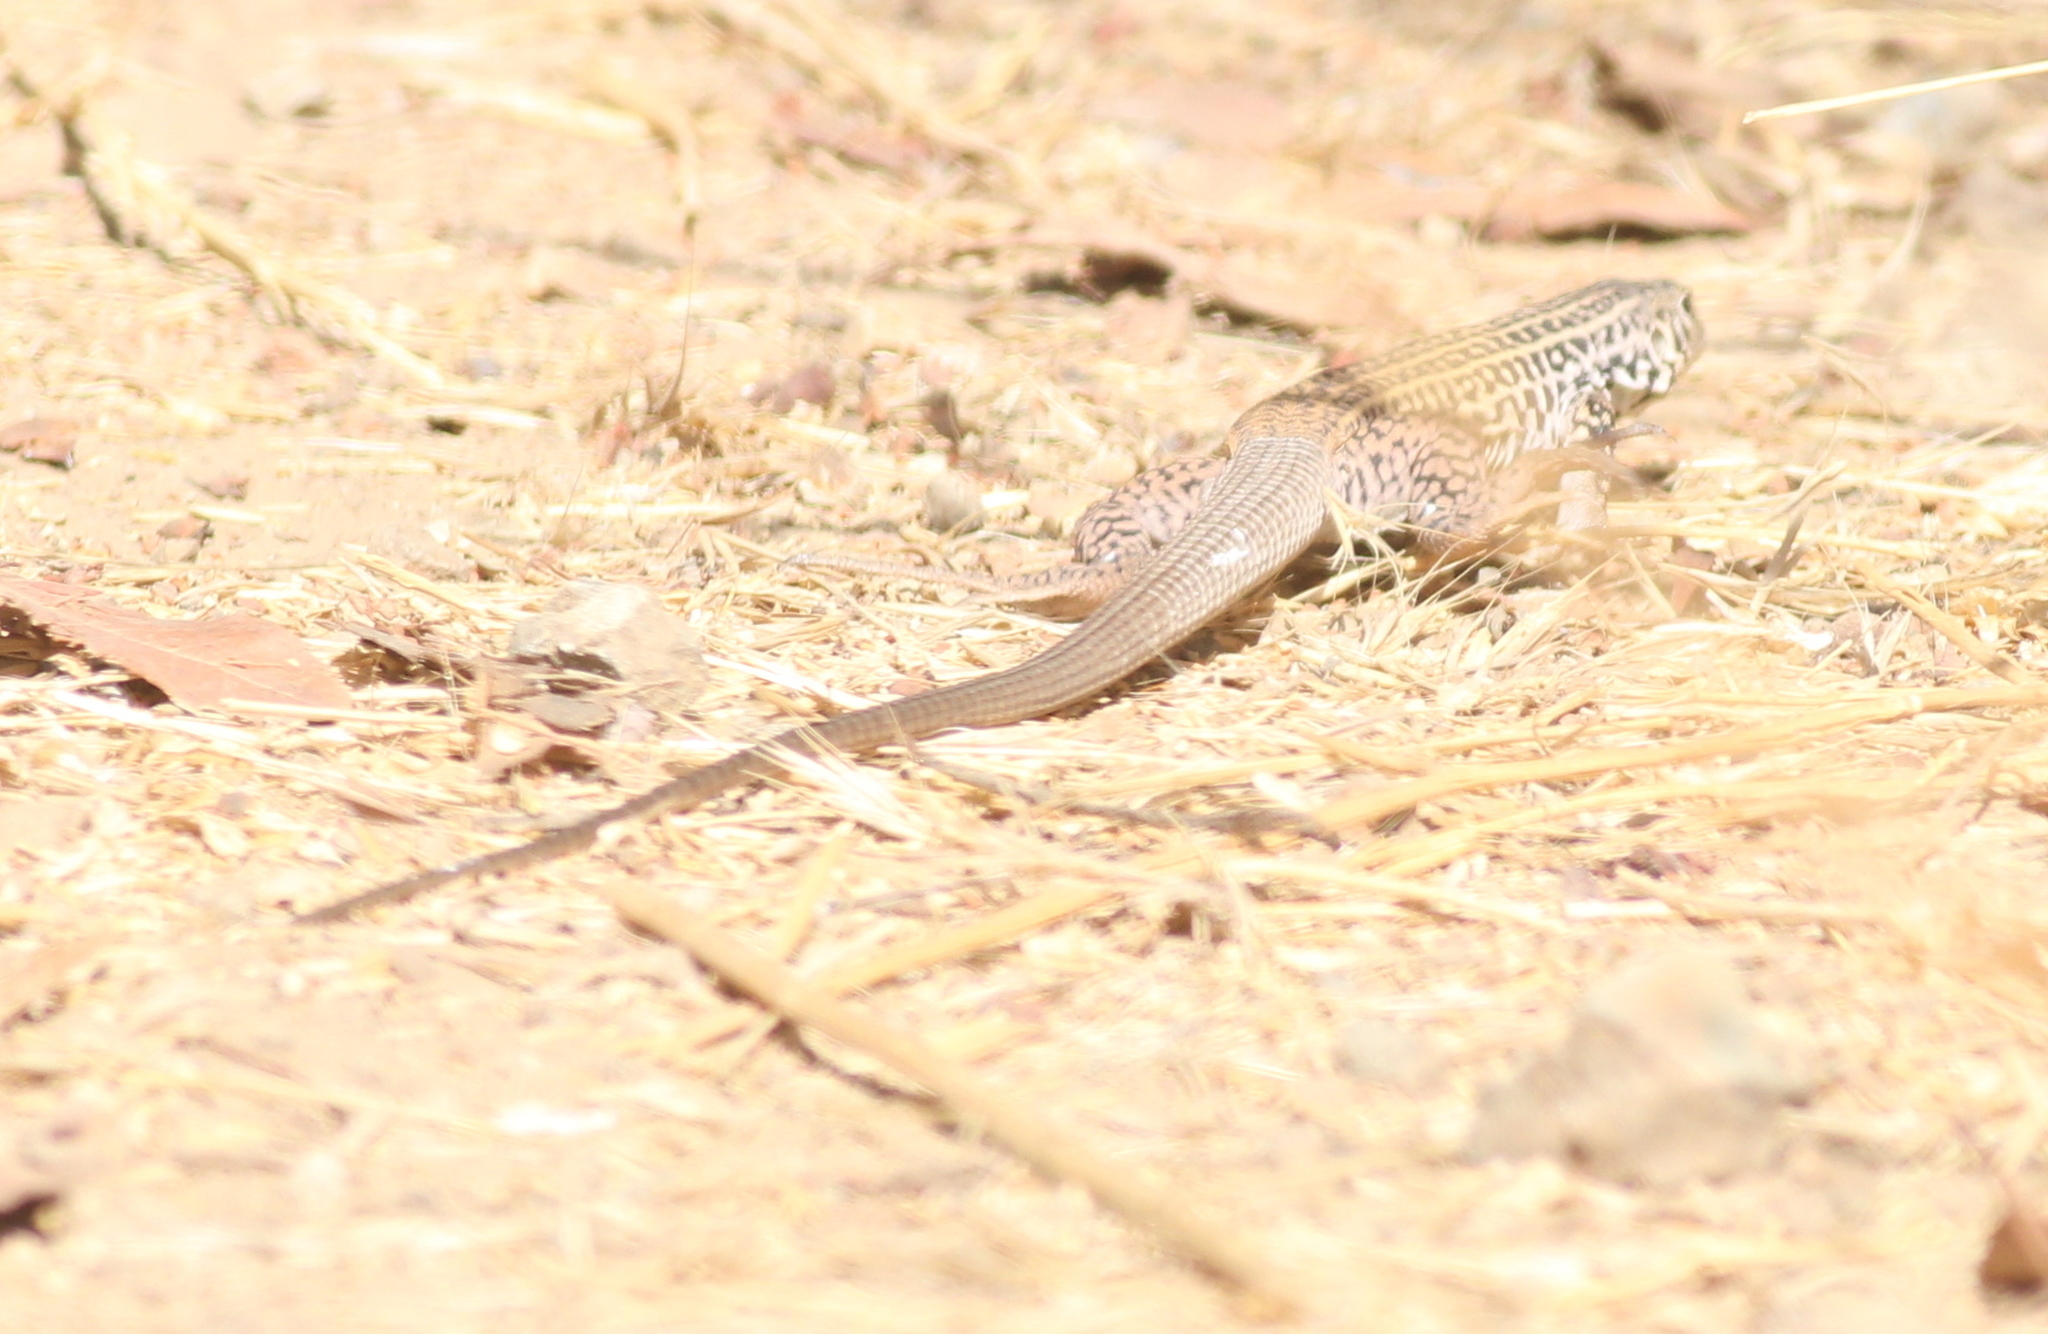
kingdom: Animalia
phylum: Chordata
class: Squamata
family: Teiidae
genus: Aspidoscelis
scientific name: Aspidoscelis tigris
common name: Tiger whiptail
